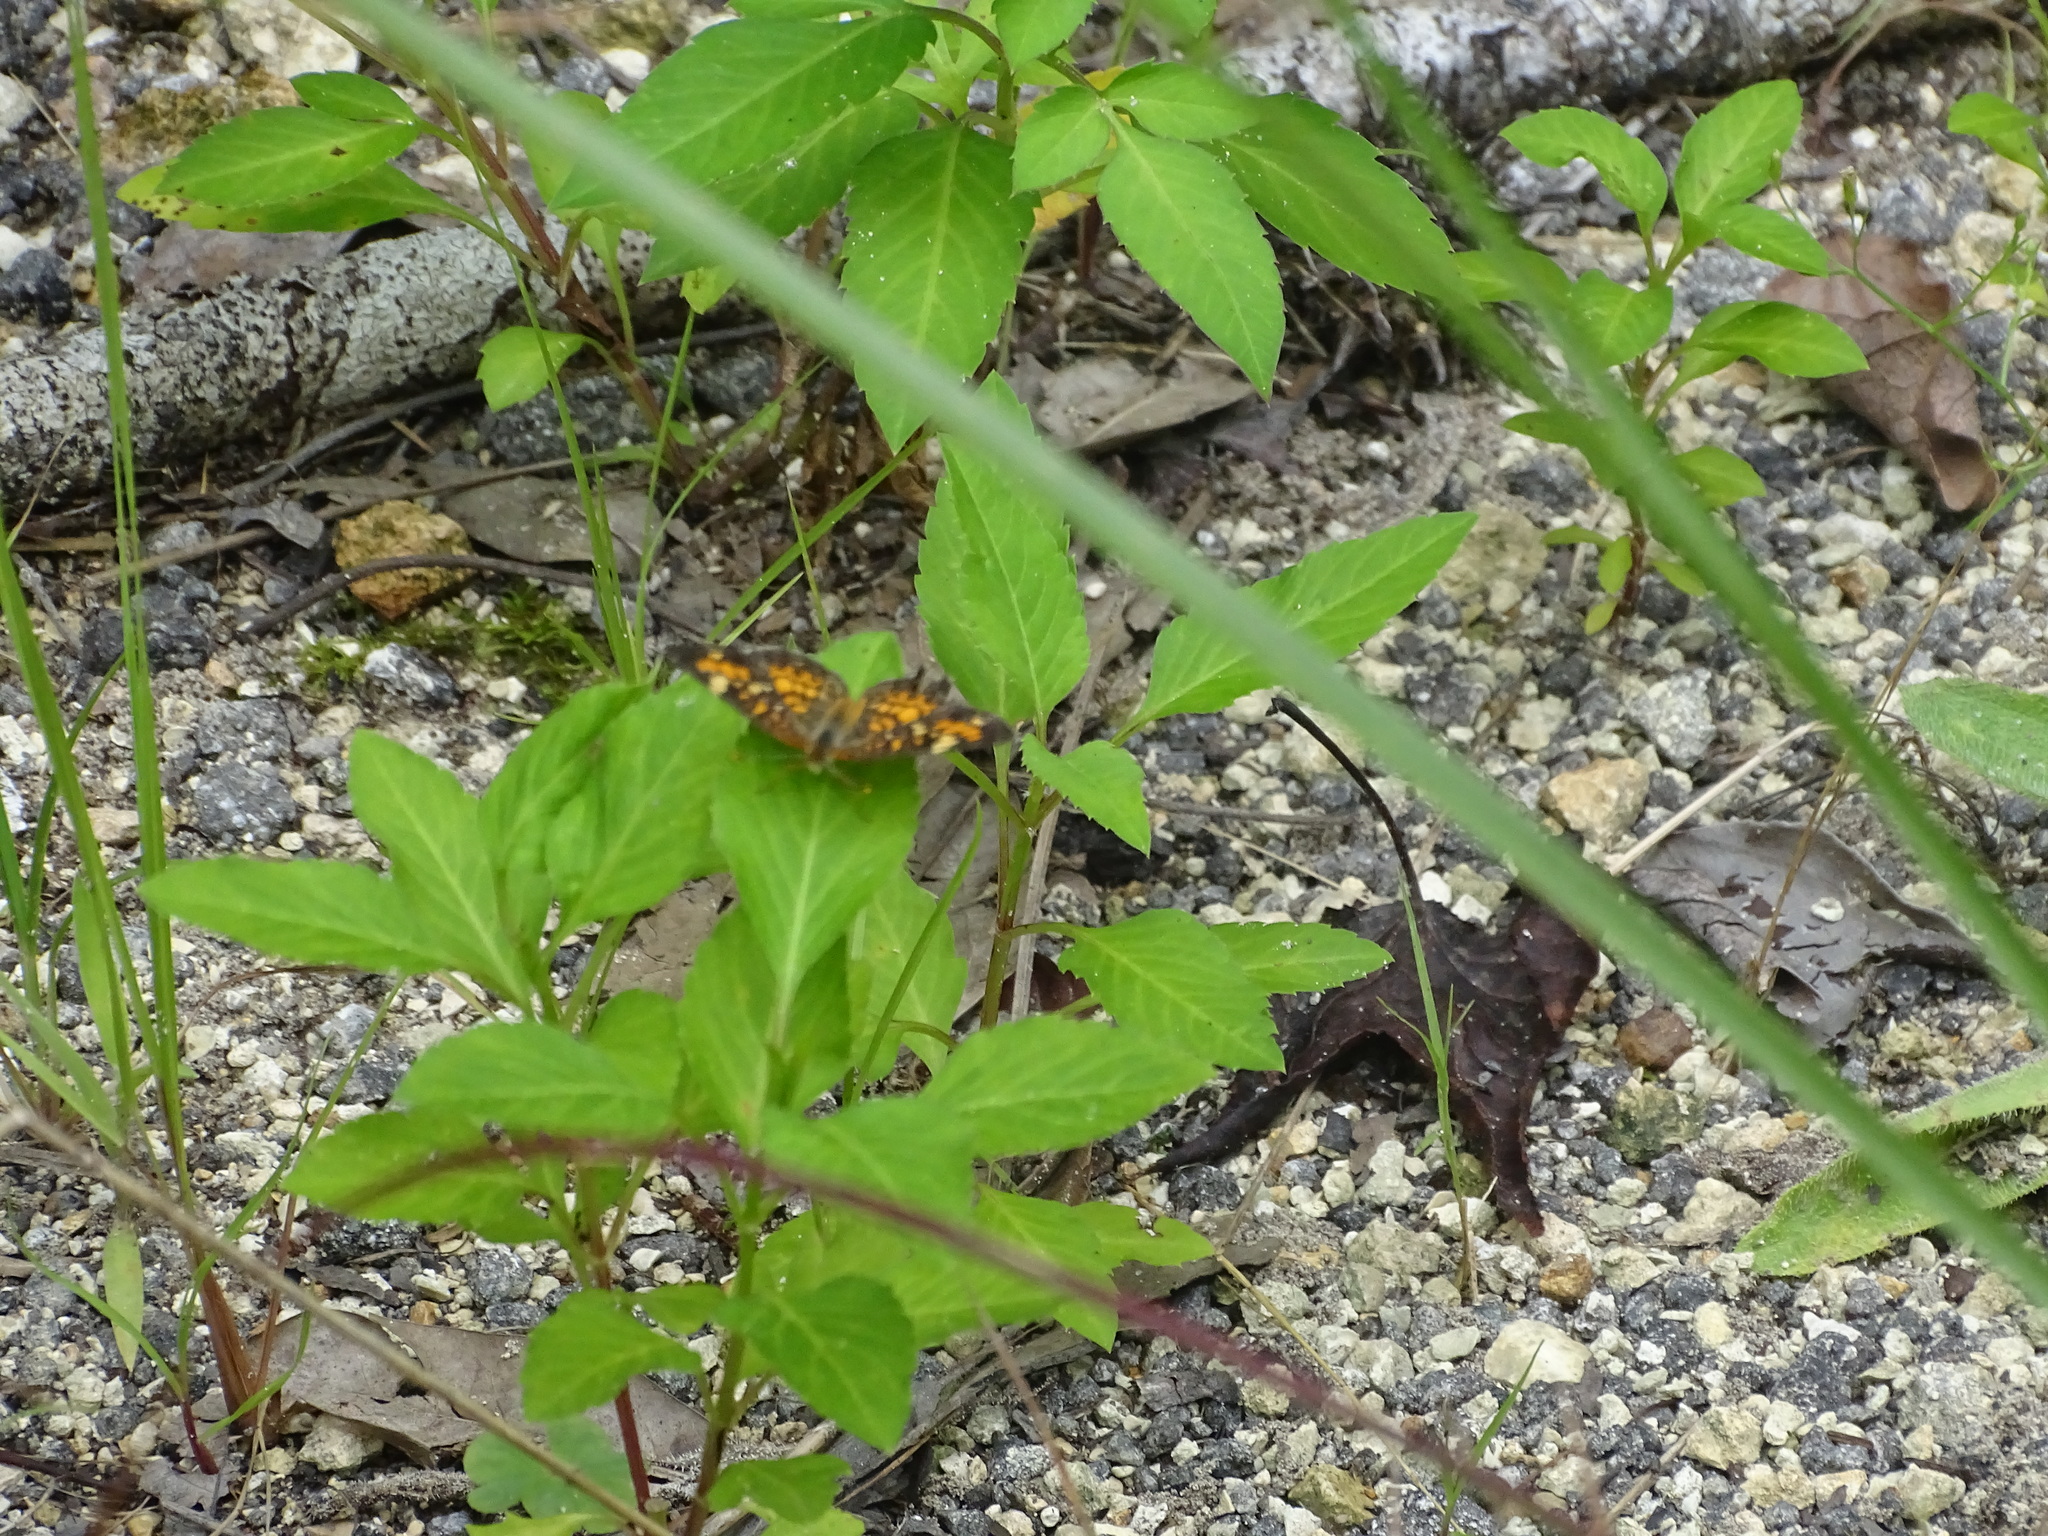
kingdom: Animalia
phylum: Arthropoda
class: Insecta
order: Lepidoptera
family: Nymphalidae
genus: Phyciodes
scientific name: Phyciodes phaon
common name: Phaon crescent
